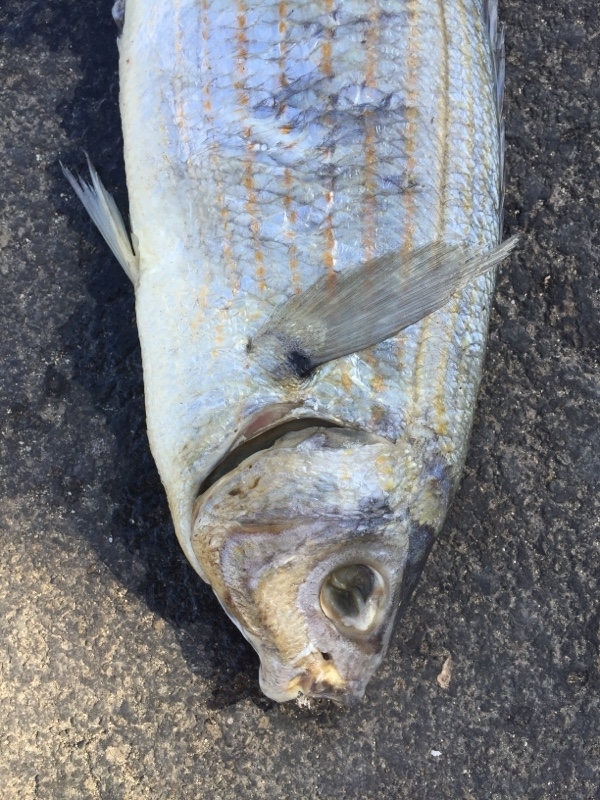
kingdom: Animalia
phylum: Chordata
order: Perciformes
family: Sparidae
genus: Sarpa
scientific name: Sarpa salpa
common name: Salema
